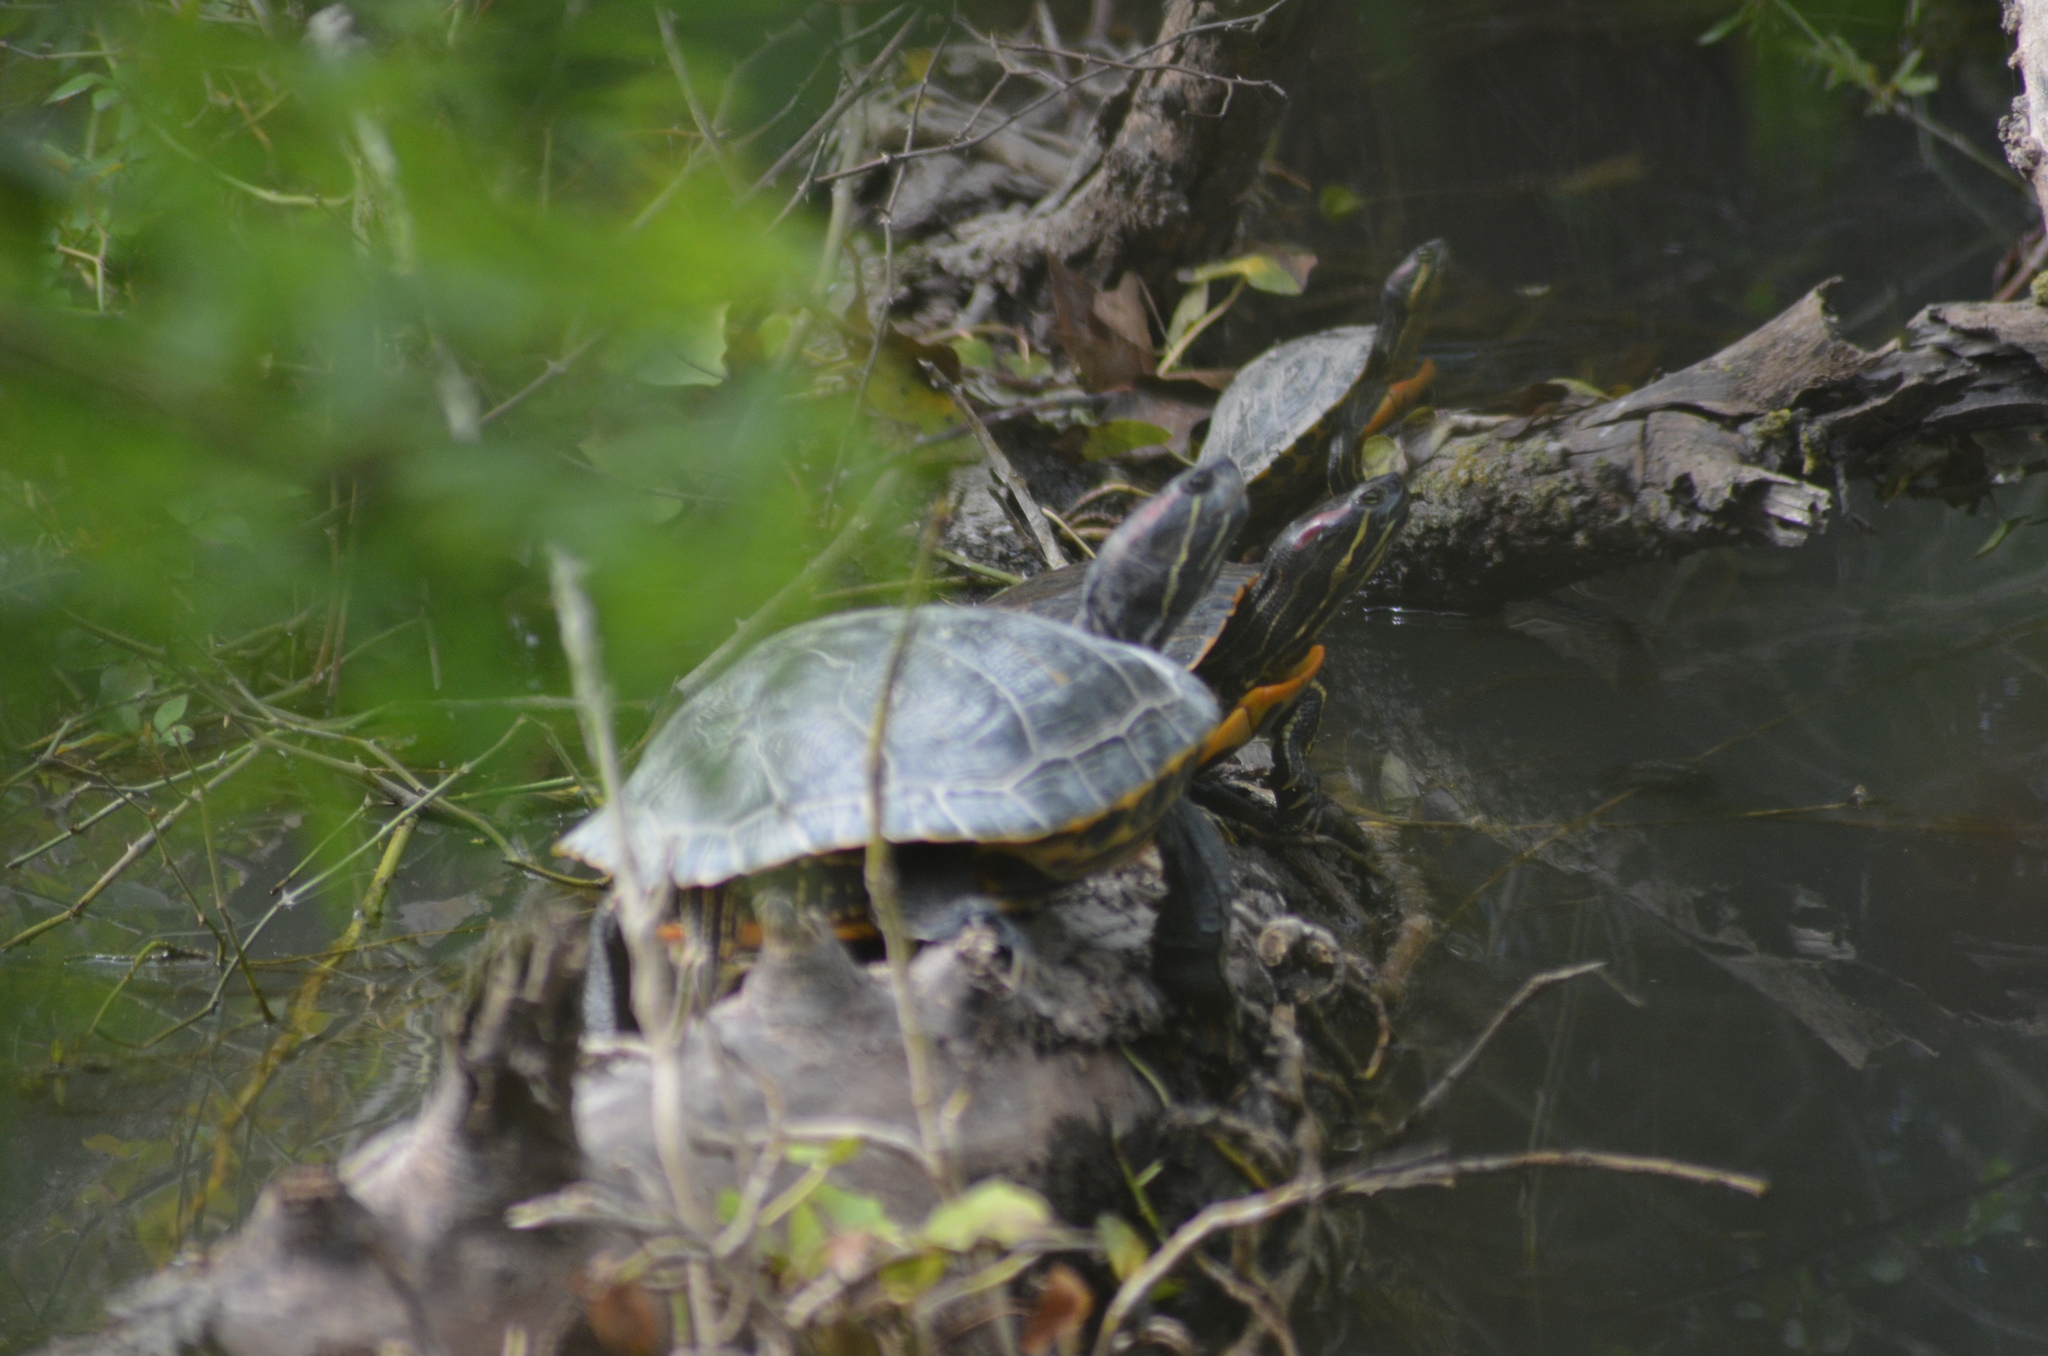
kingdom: Animalia
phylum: Chordata
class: Testudines
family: Emydidae
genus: Trachemys
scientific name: Trachemys scripta
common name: Slider
